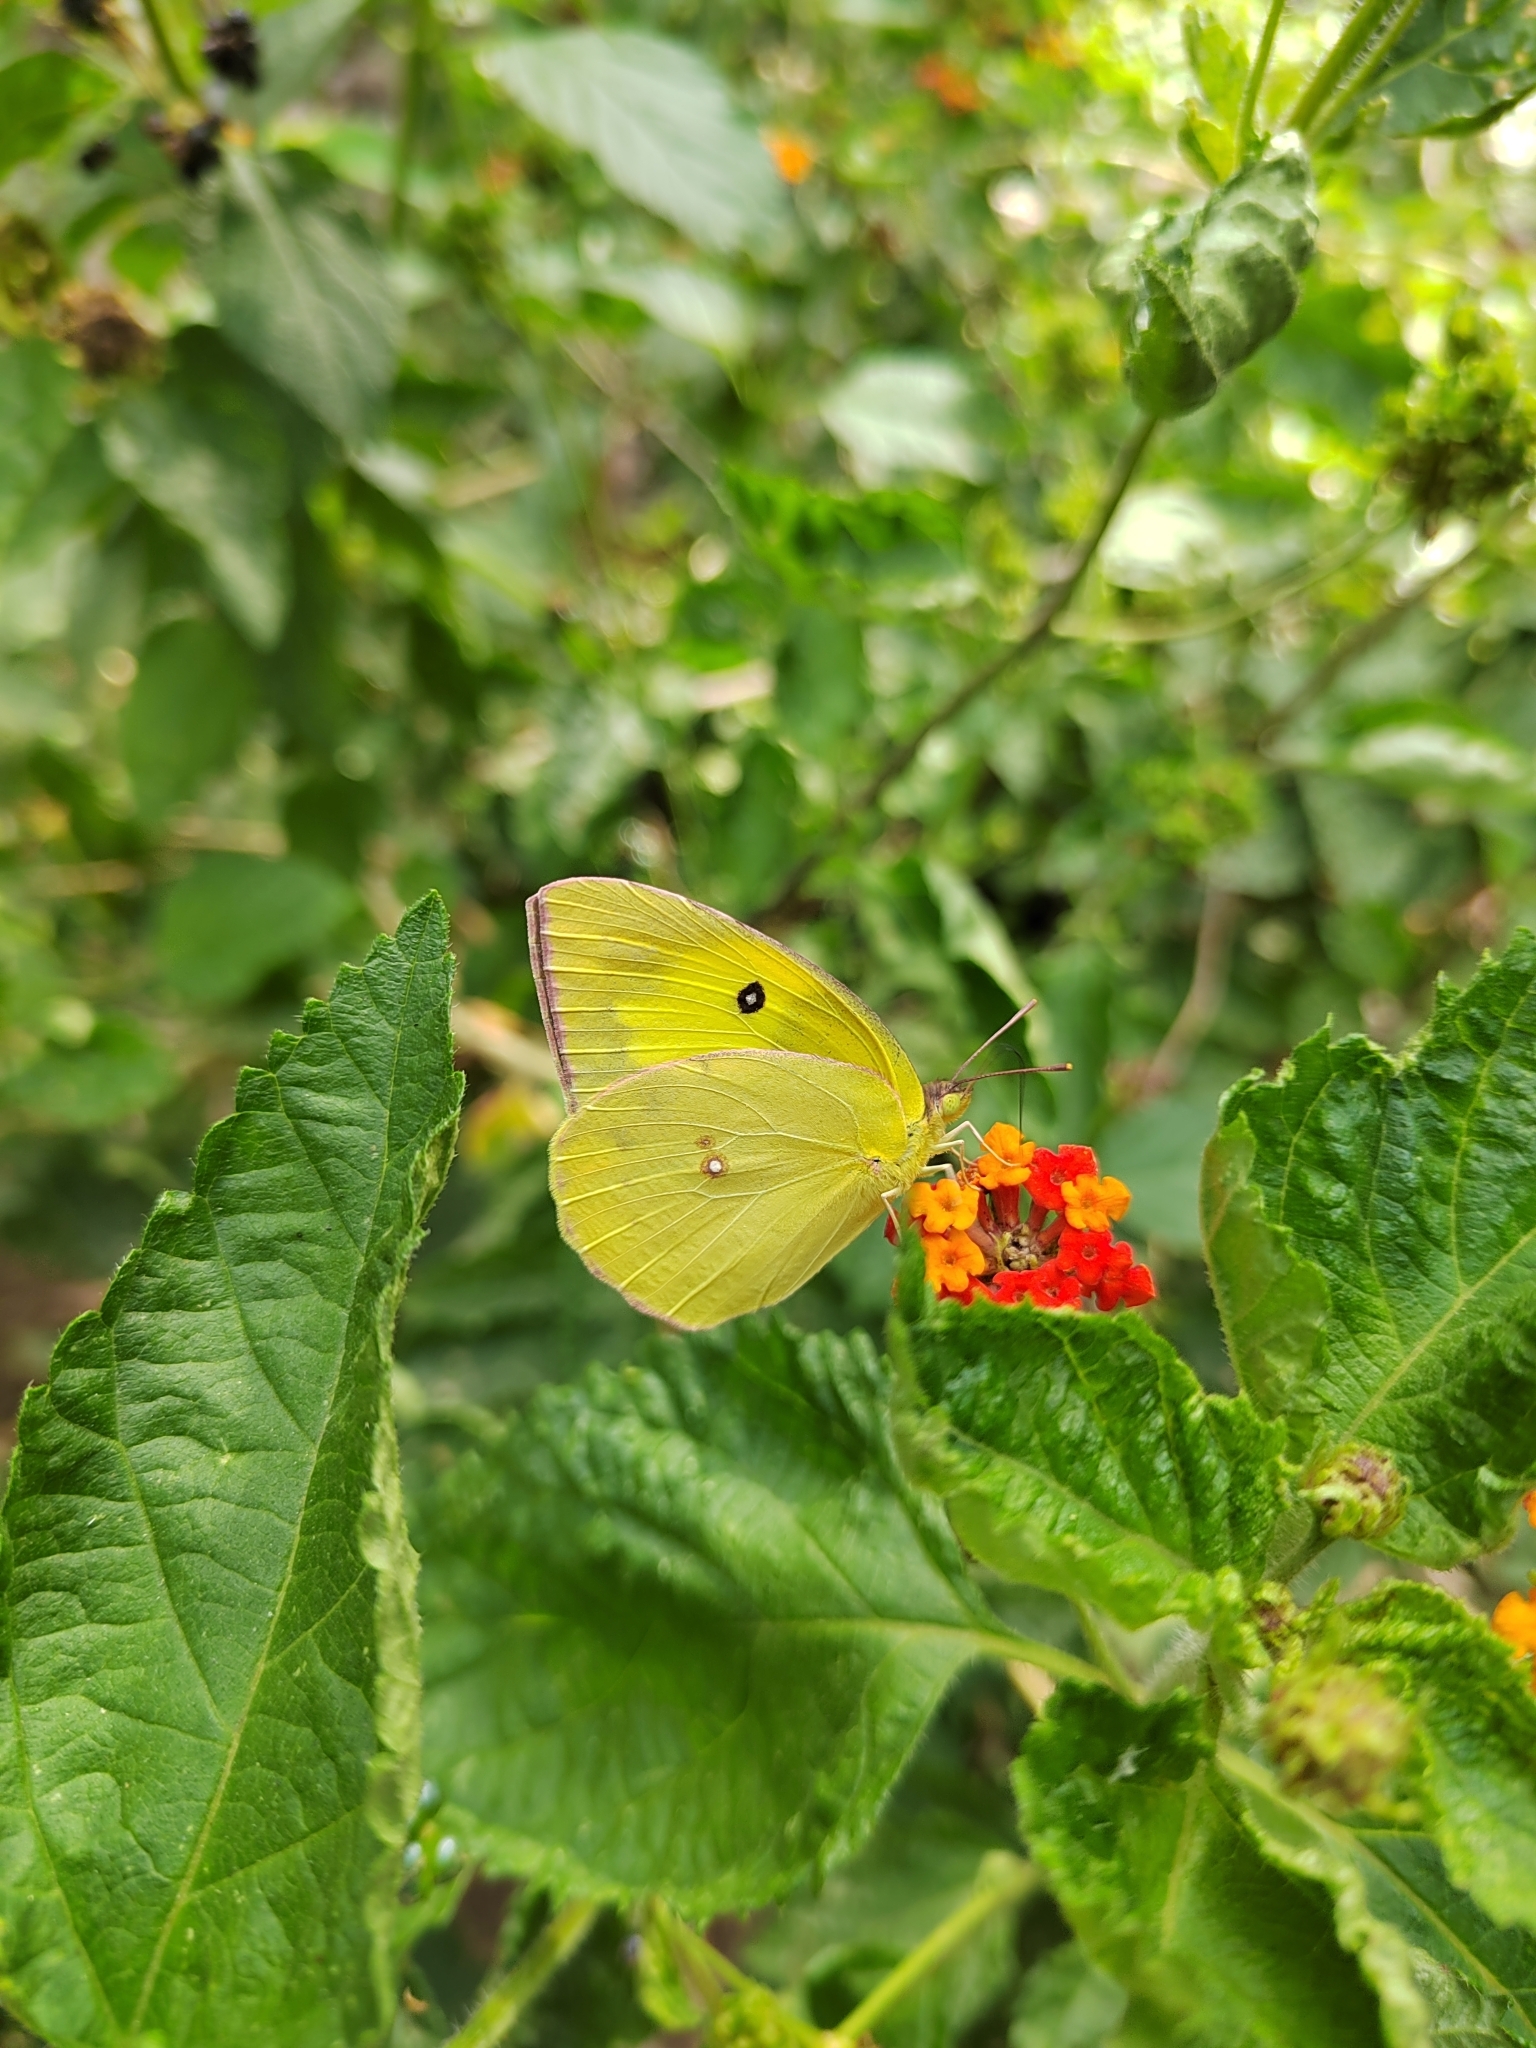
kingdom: Animalia
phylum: Arthropoda
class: Insecta
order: Lepidoptera
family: Pieridae
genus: Zerene
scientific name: Zerene cesonia
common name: Southern dogface
